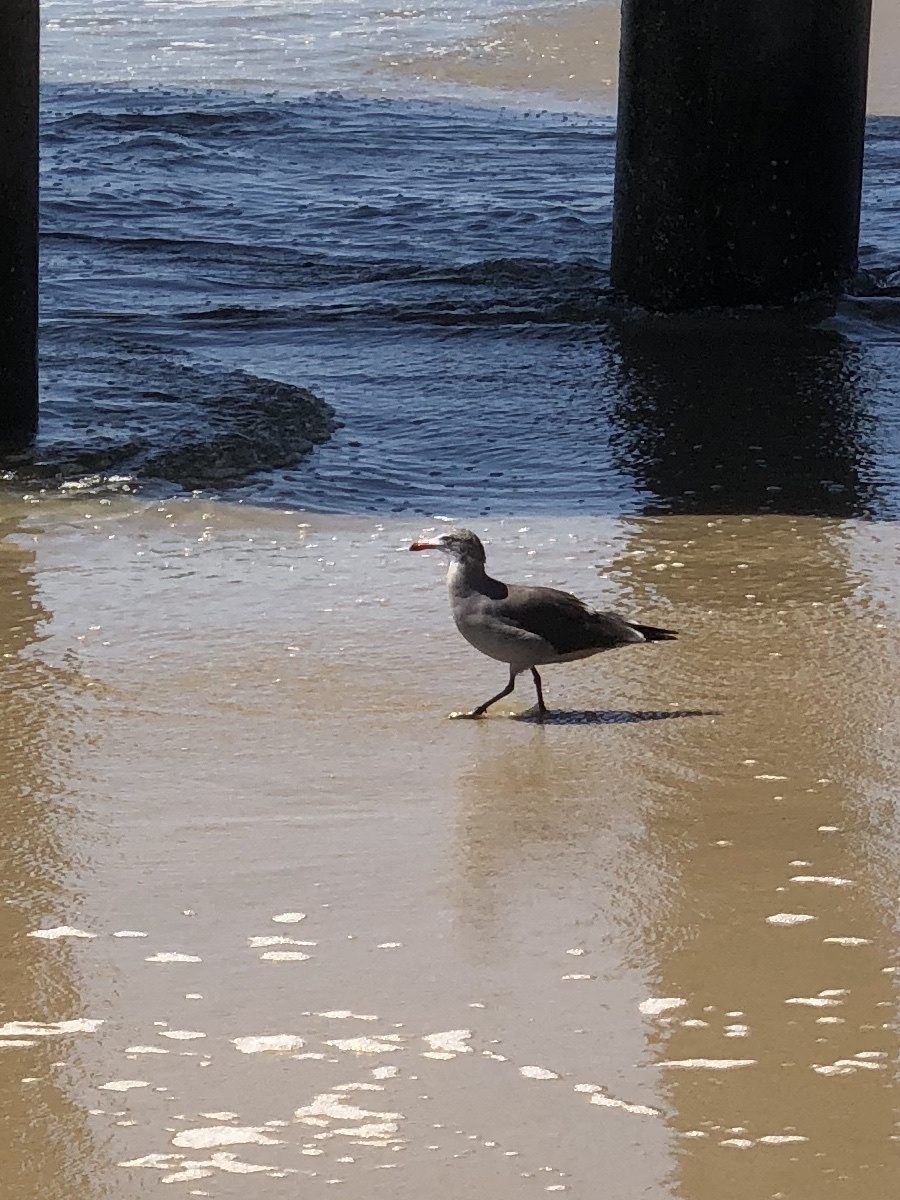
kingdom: Animalia
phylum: Chordata
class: Aves
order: Charadriiformes
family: Laridae
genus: Larus
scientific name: Larus heermanni
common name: Heermann's gull
